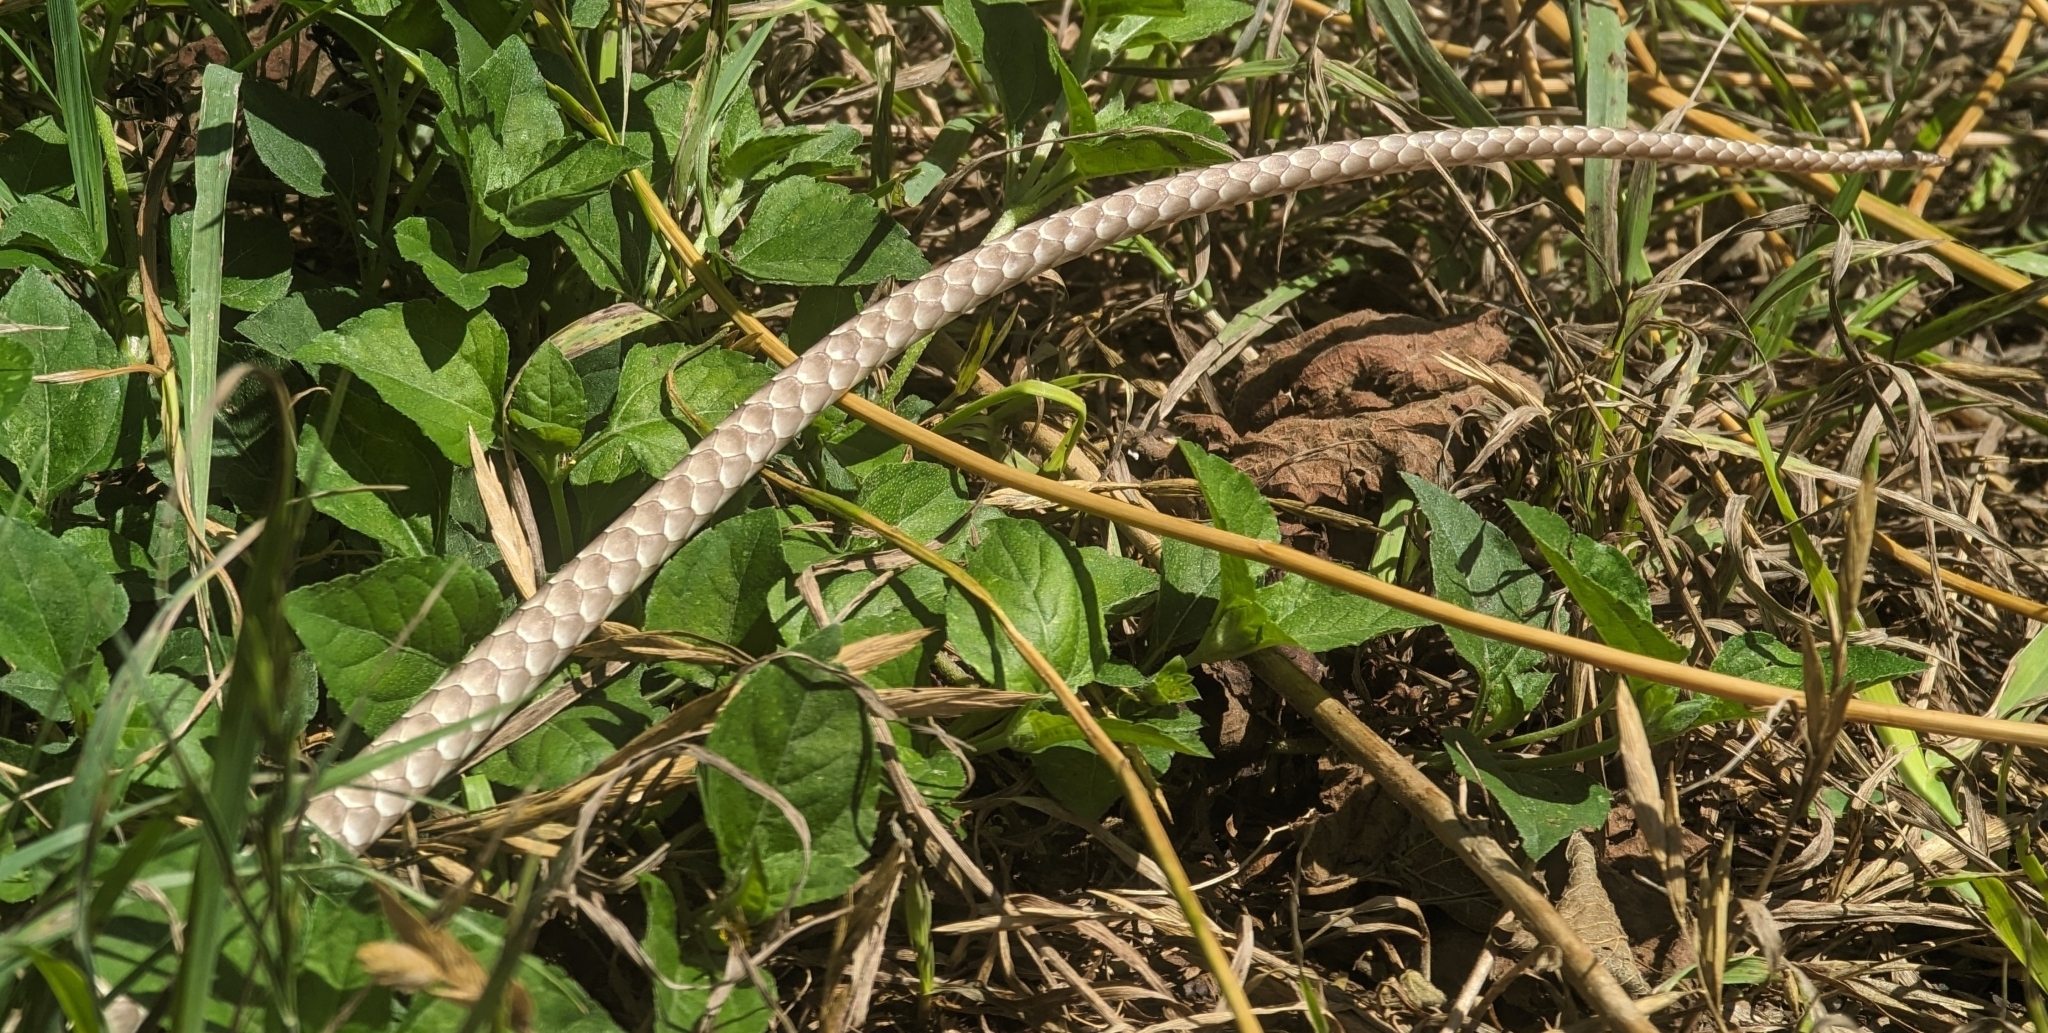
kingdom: Animalia
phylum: Chordata
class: Squamata
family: Colubridae
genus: Masticophis
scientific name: Masticophis flagellum
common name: Coachwhip
